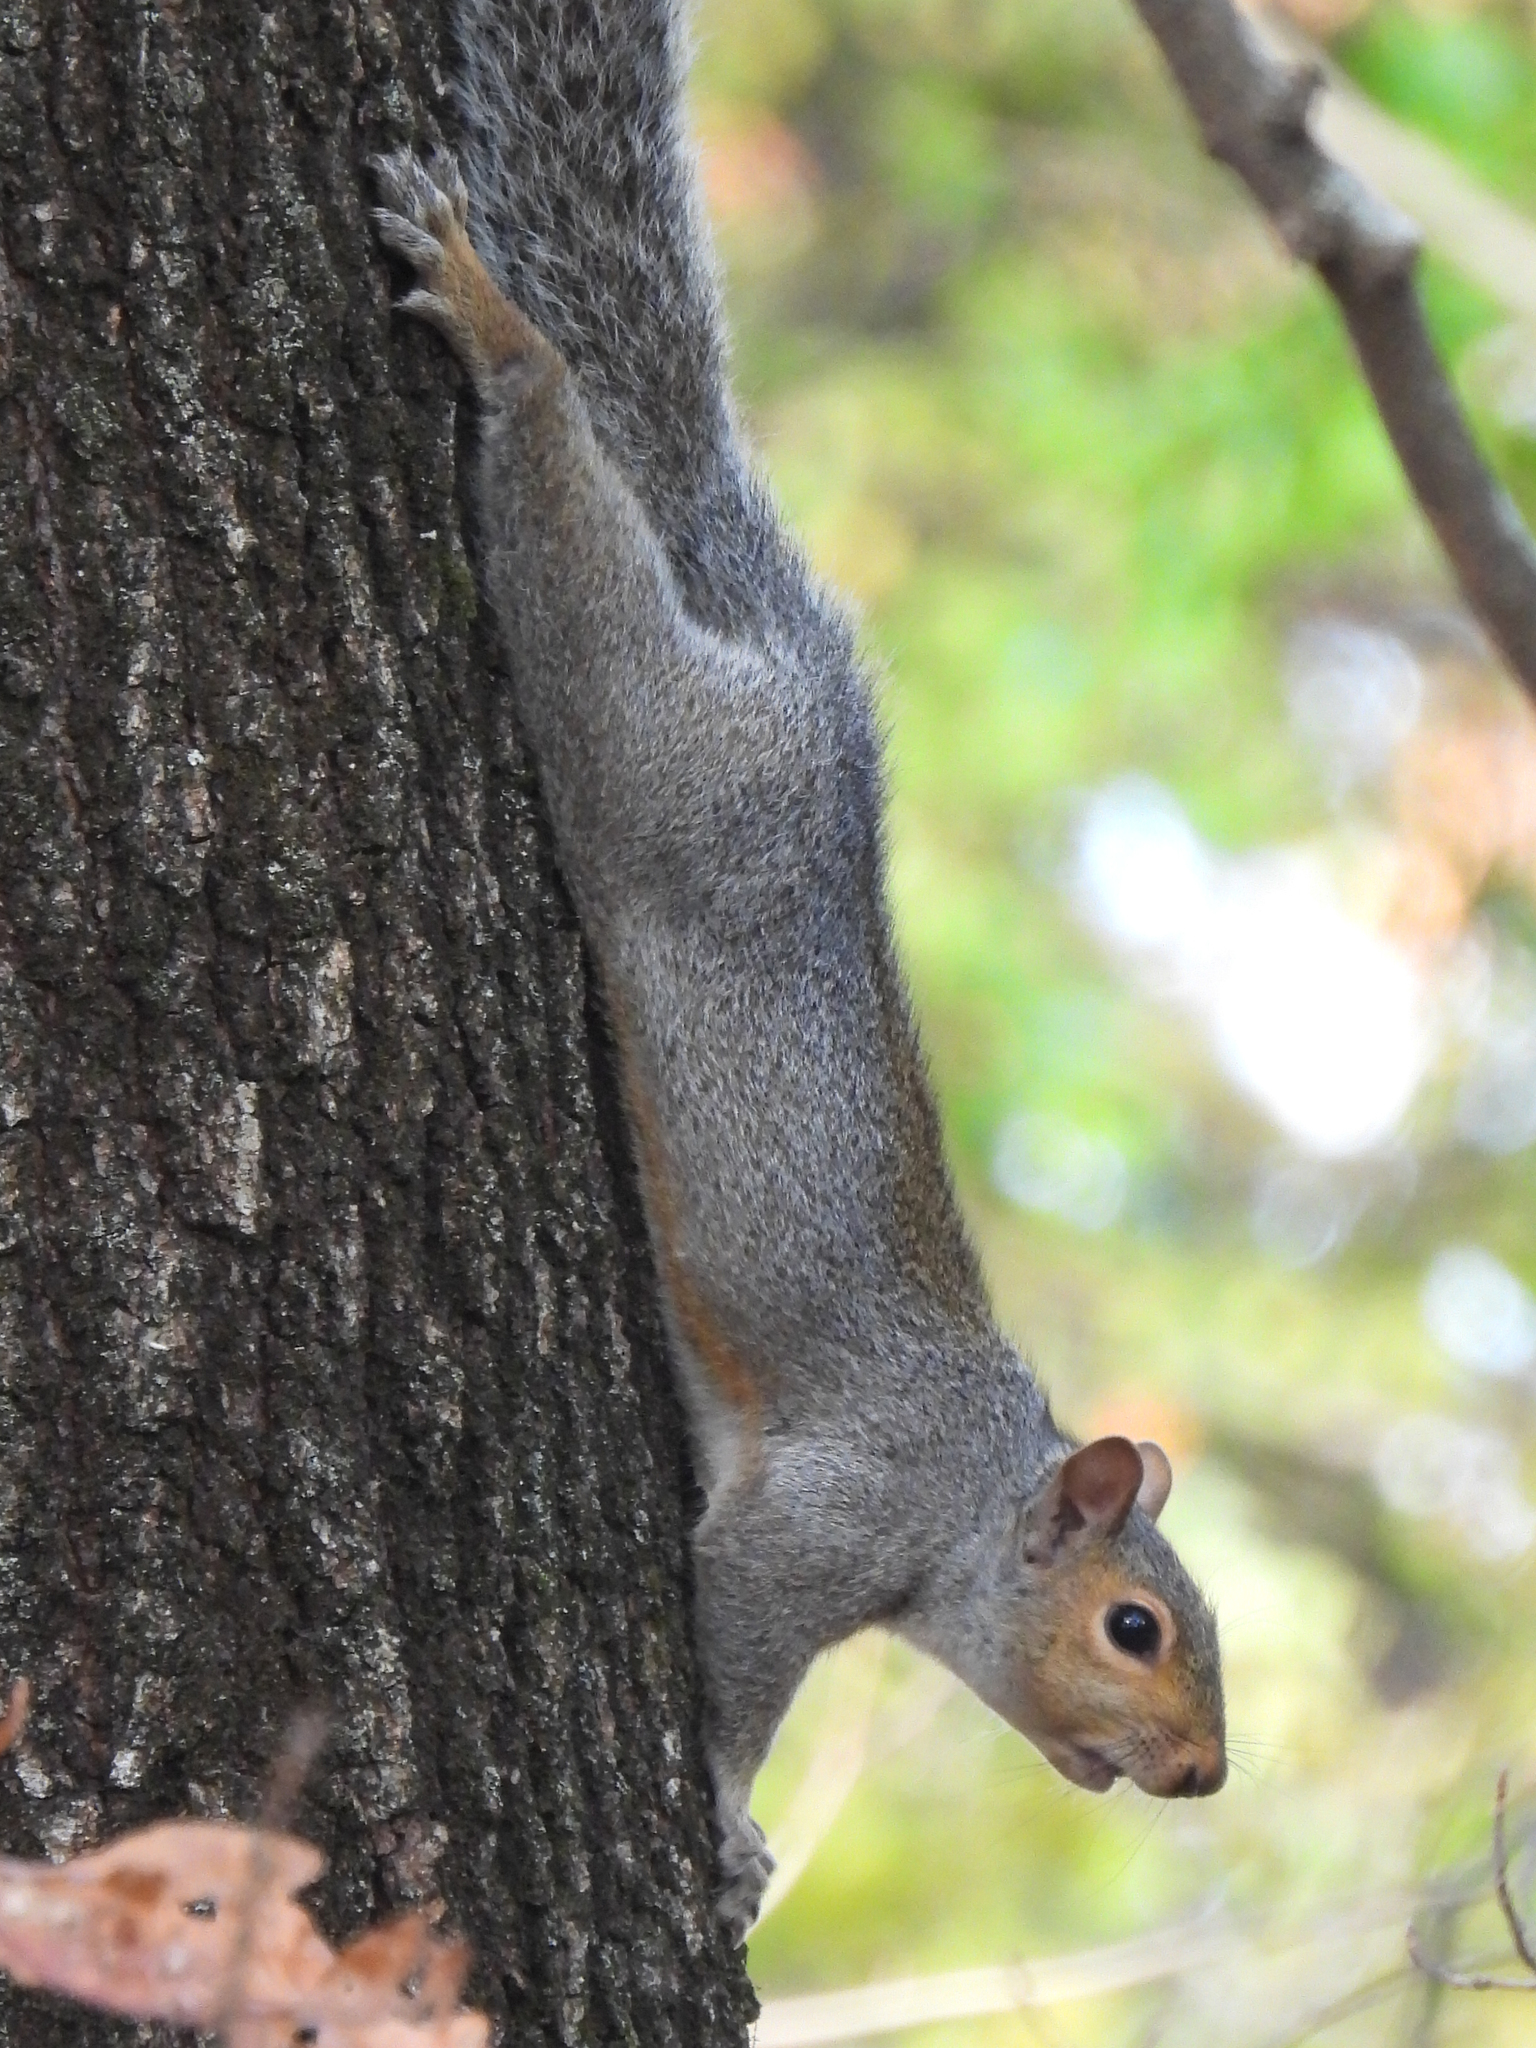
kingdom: Animalia
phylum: Chordata
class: Mammalia
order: Rodentia
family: Sciuridae
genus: Sciurus
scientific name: Sciurus carolinensis
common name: Eastern gray squirrel
